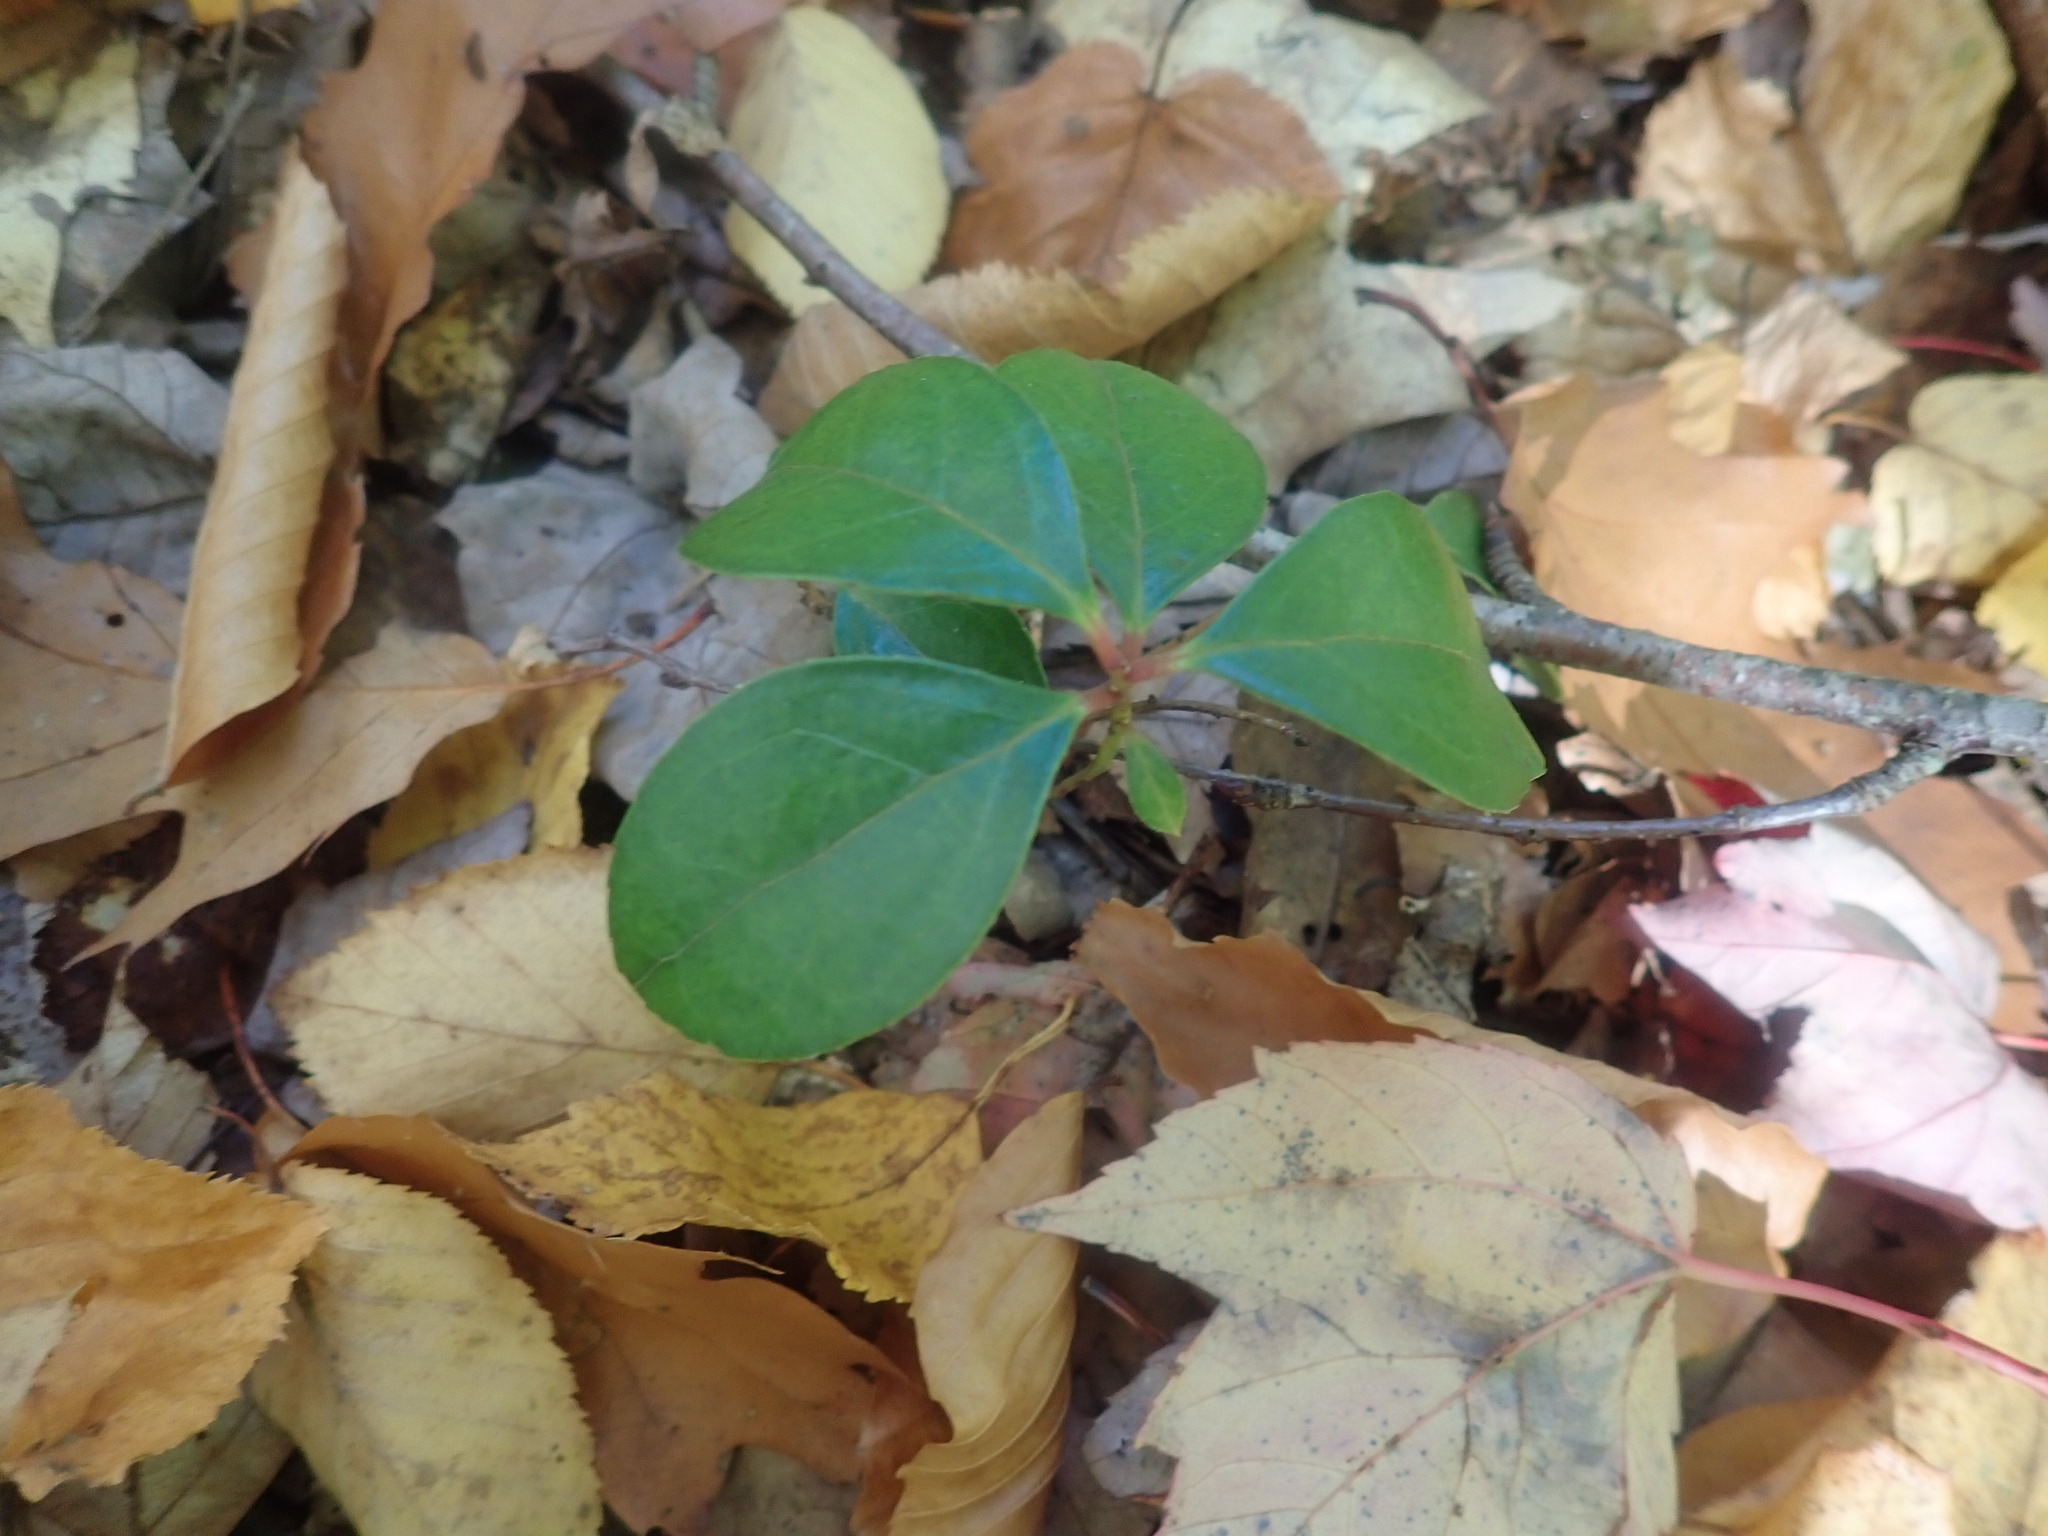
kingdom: Plantae
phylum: Tracheophyta
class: Magnoliopsida
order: Ericales
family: Ericaceae
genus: Gaultheria
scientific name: Gaultheria procumbens
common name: Checkerberry
